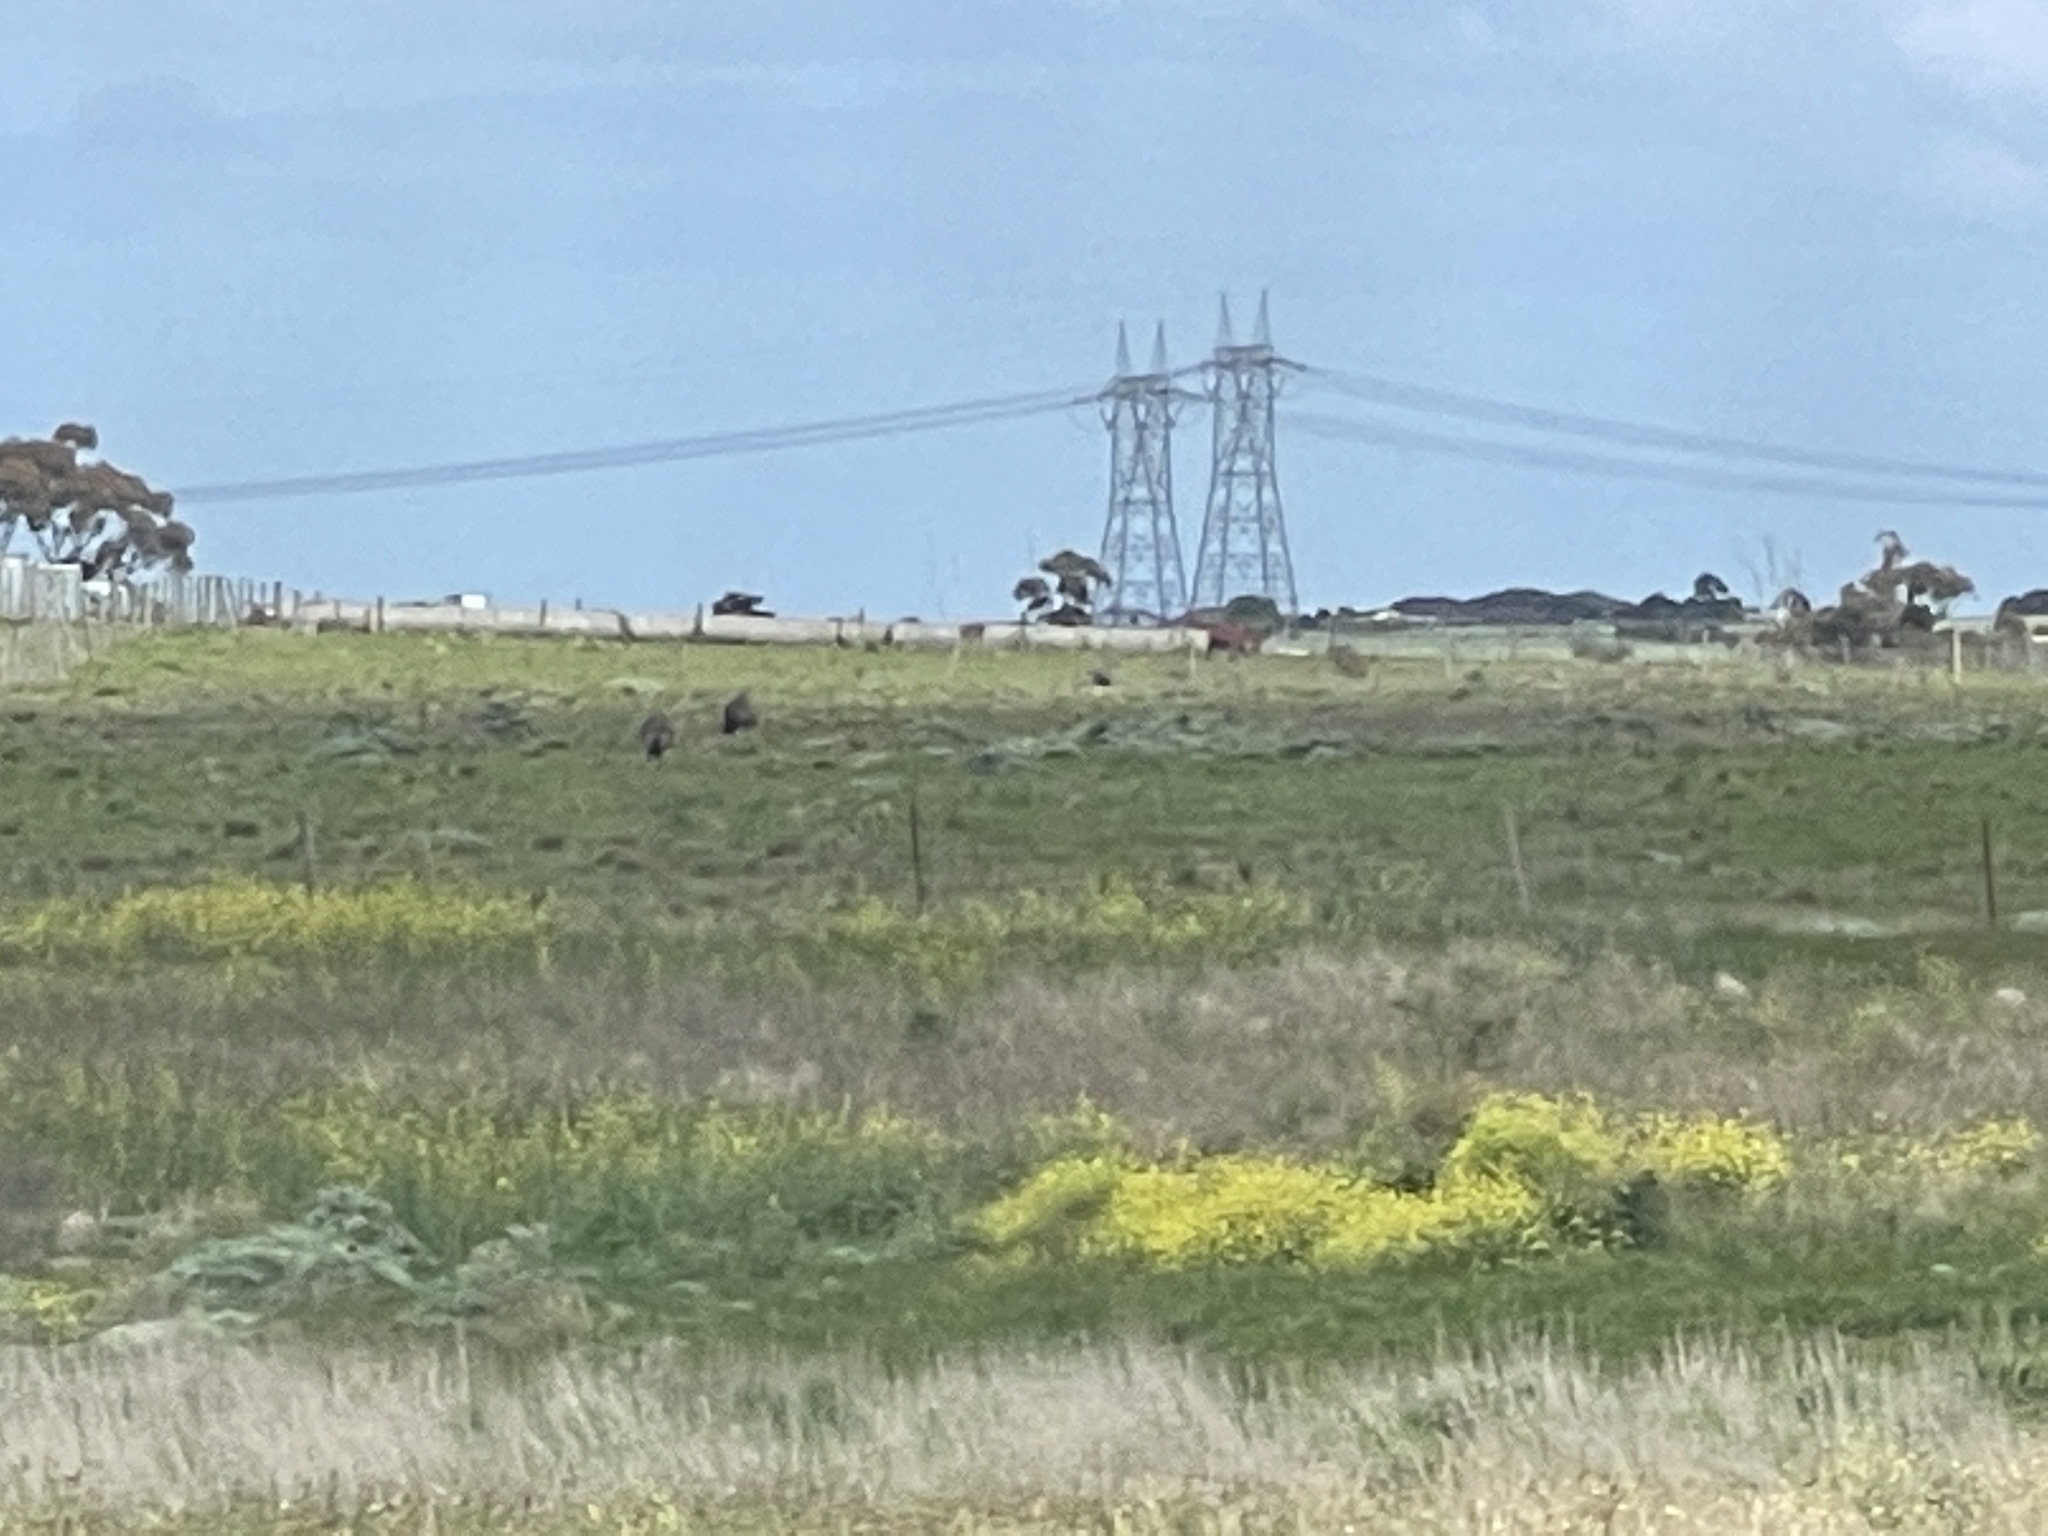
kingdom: Animalia
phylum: Chordata
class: Aves
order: Casuariiformes
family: Dromaiidae
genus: Dromaius
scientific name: Dromaius novaehollandiae
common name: Emu
